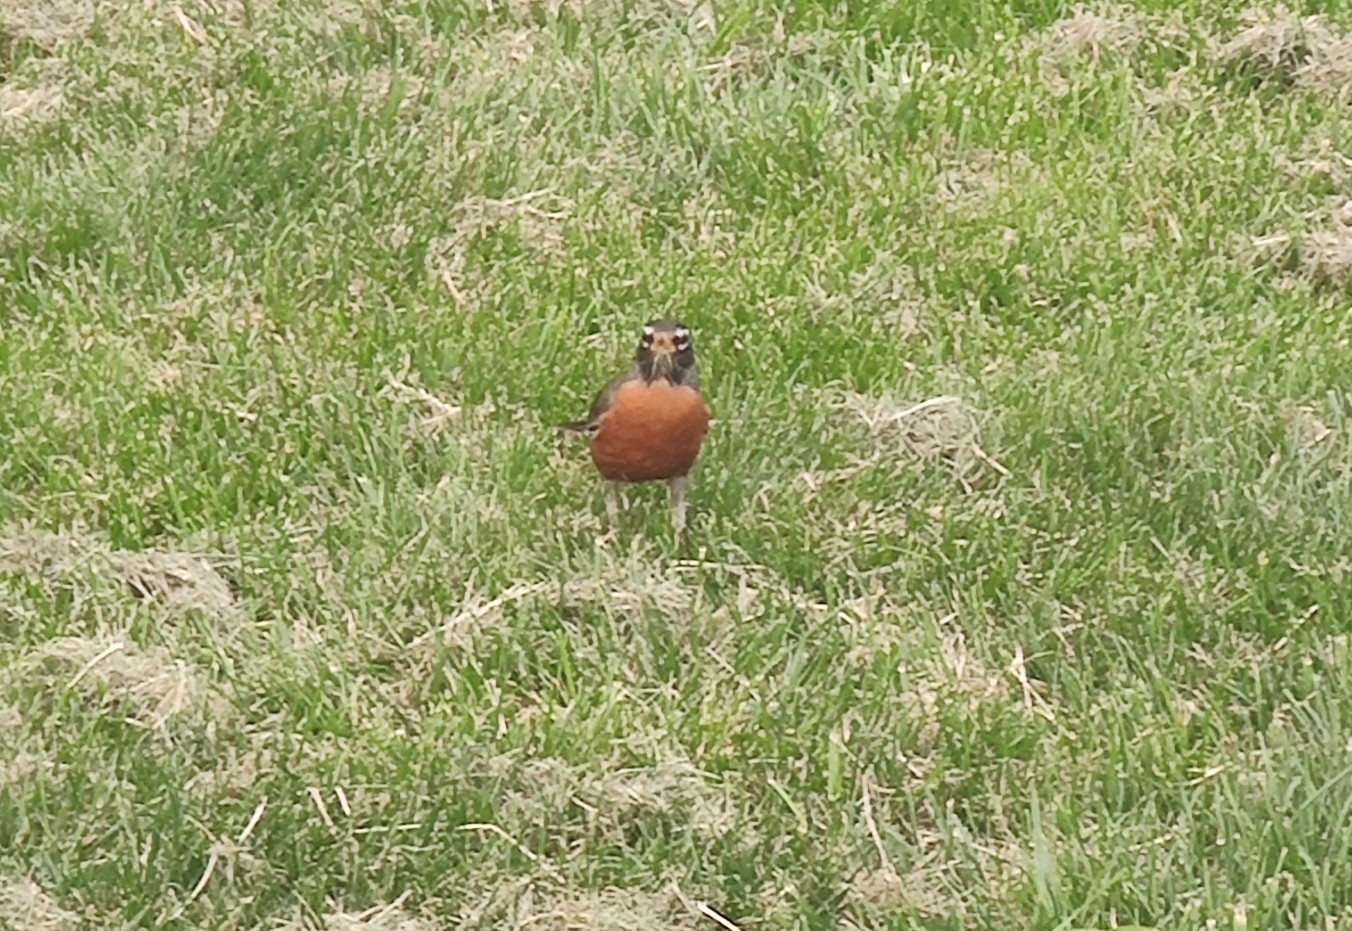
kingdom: Animalia
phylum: Chordata
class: Aves
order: Passeriformes
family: Turdidae
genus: Turdus
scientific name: Turdus migratorius
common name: American robin
